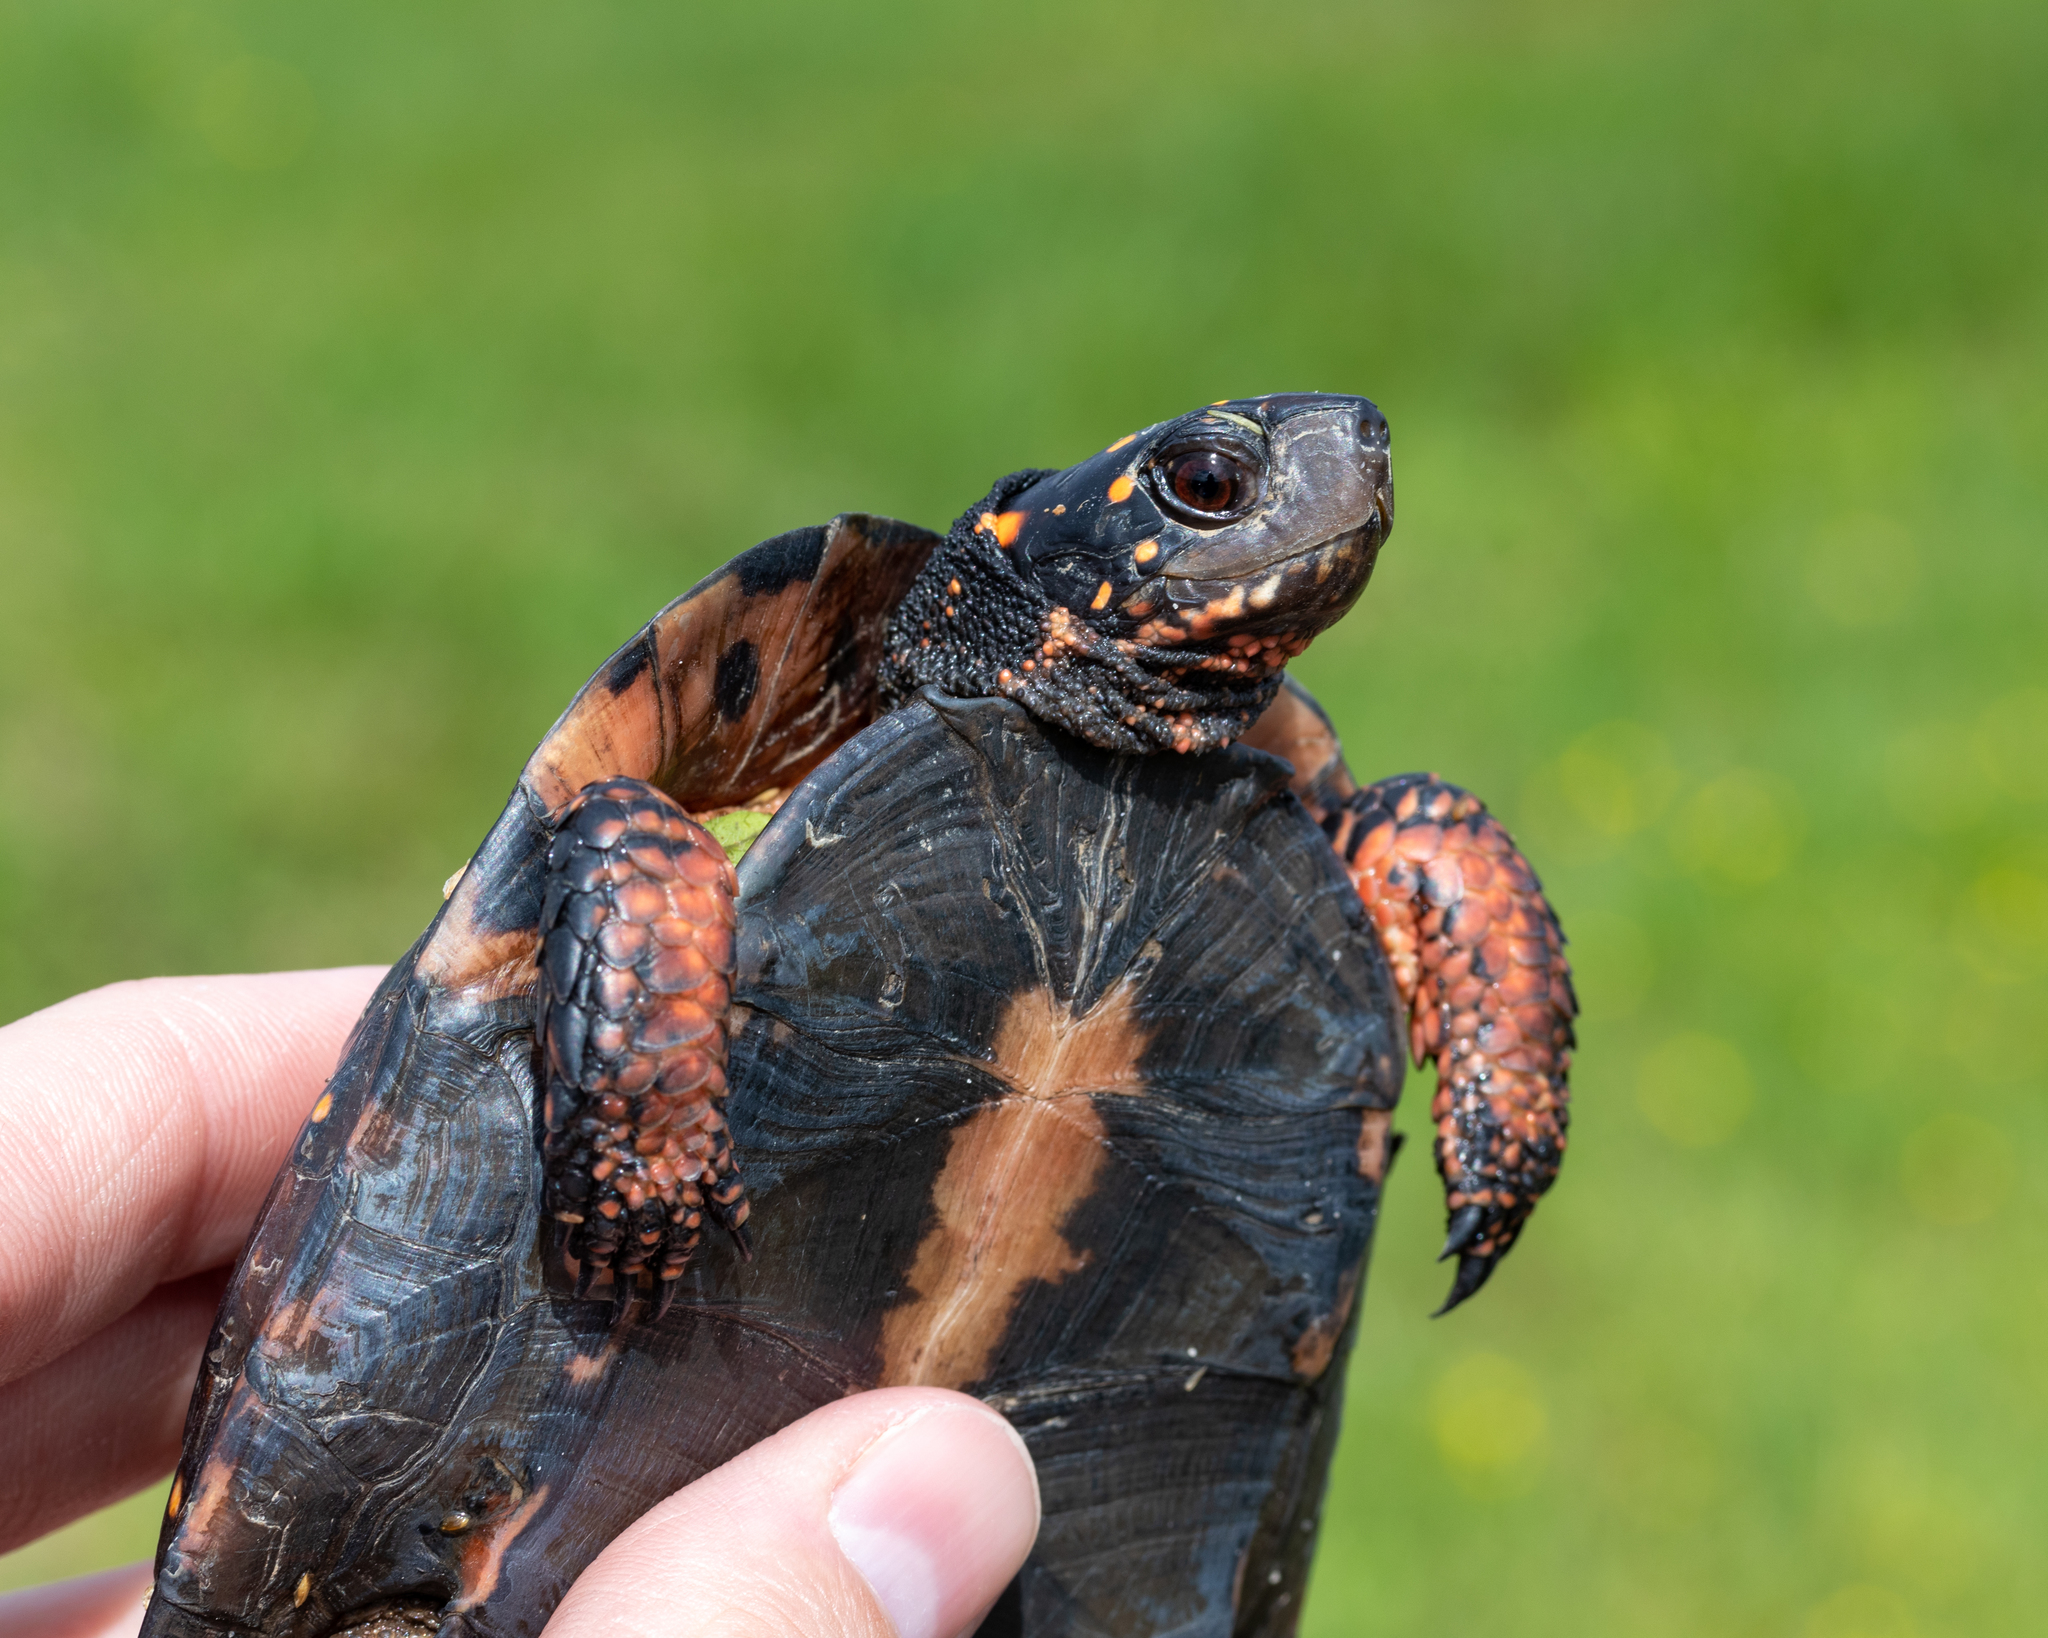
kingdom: Animalia
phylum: Chordata
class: Testudines
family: Emydidae
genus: Clemmys
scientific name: Clemmys guttata
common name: Spotted turtle
